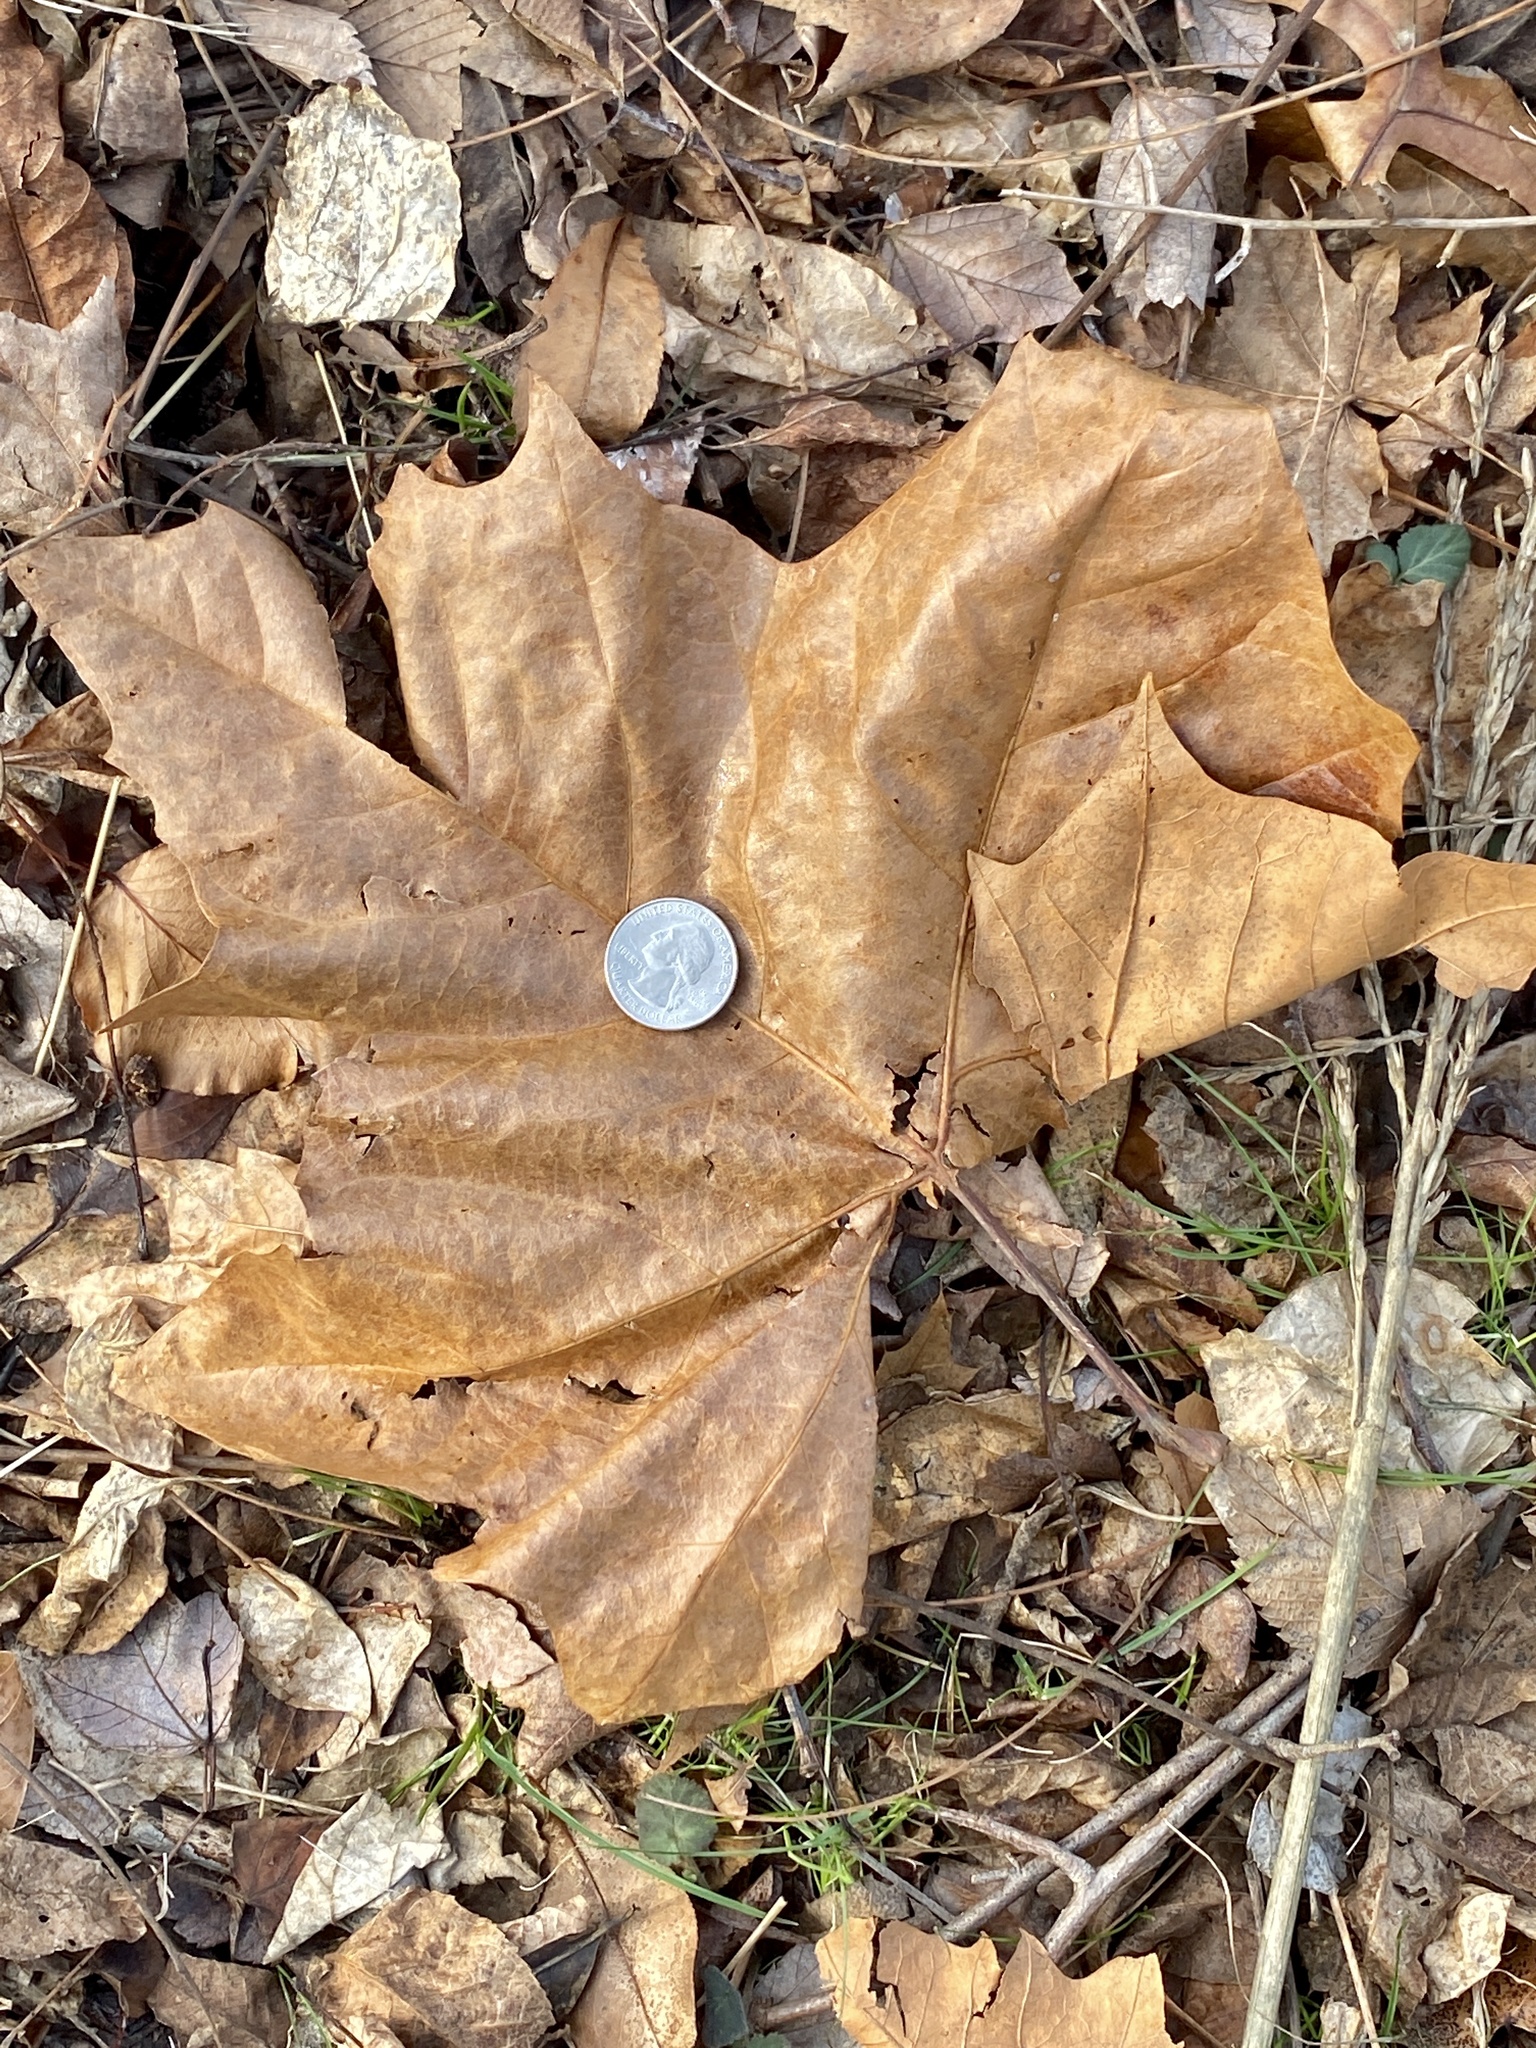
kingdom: Plantae
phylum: Tracheophyta
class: Magnoliopsida
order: Proteales
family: Platanaceae
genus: Platanus
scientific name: Platanus occidentalis
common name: American sycamore
